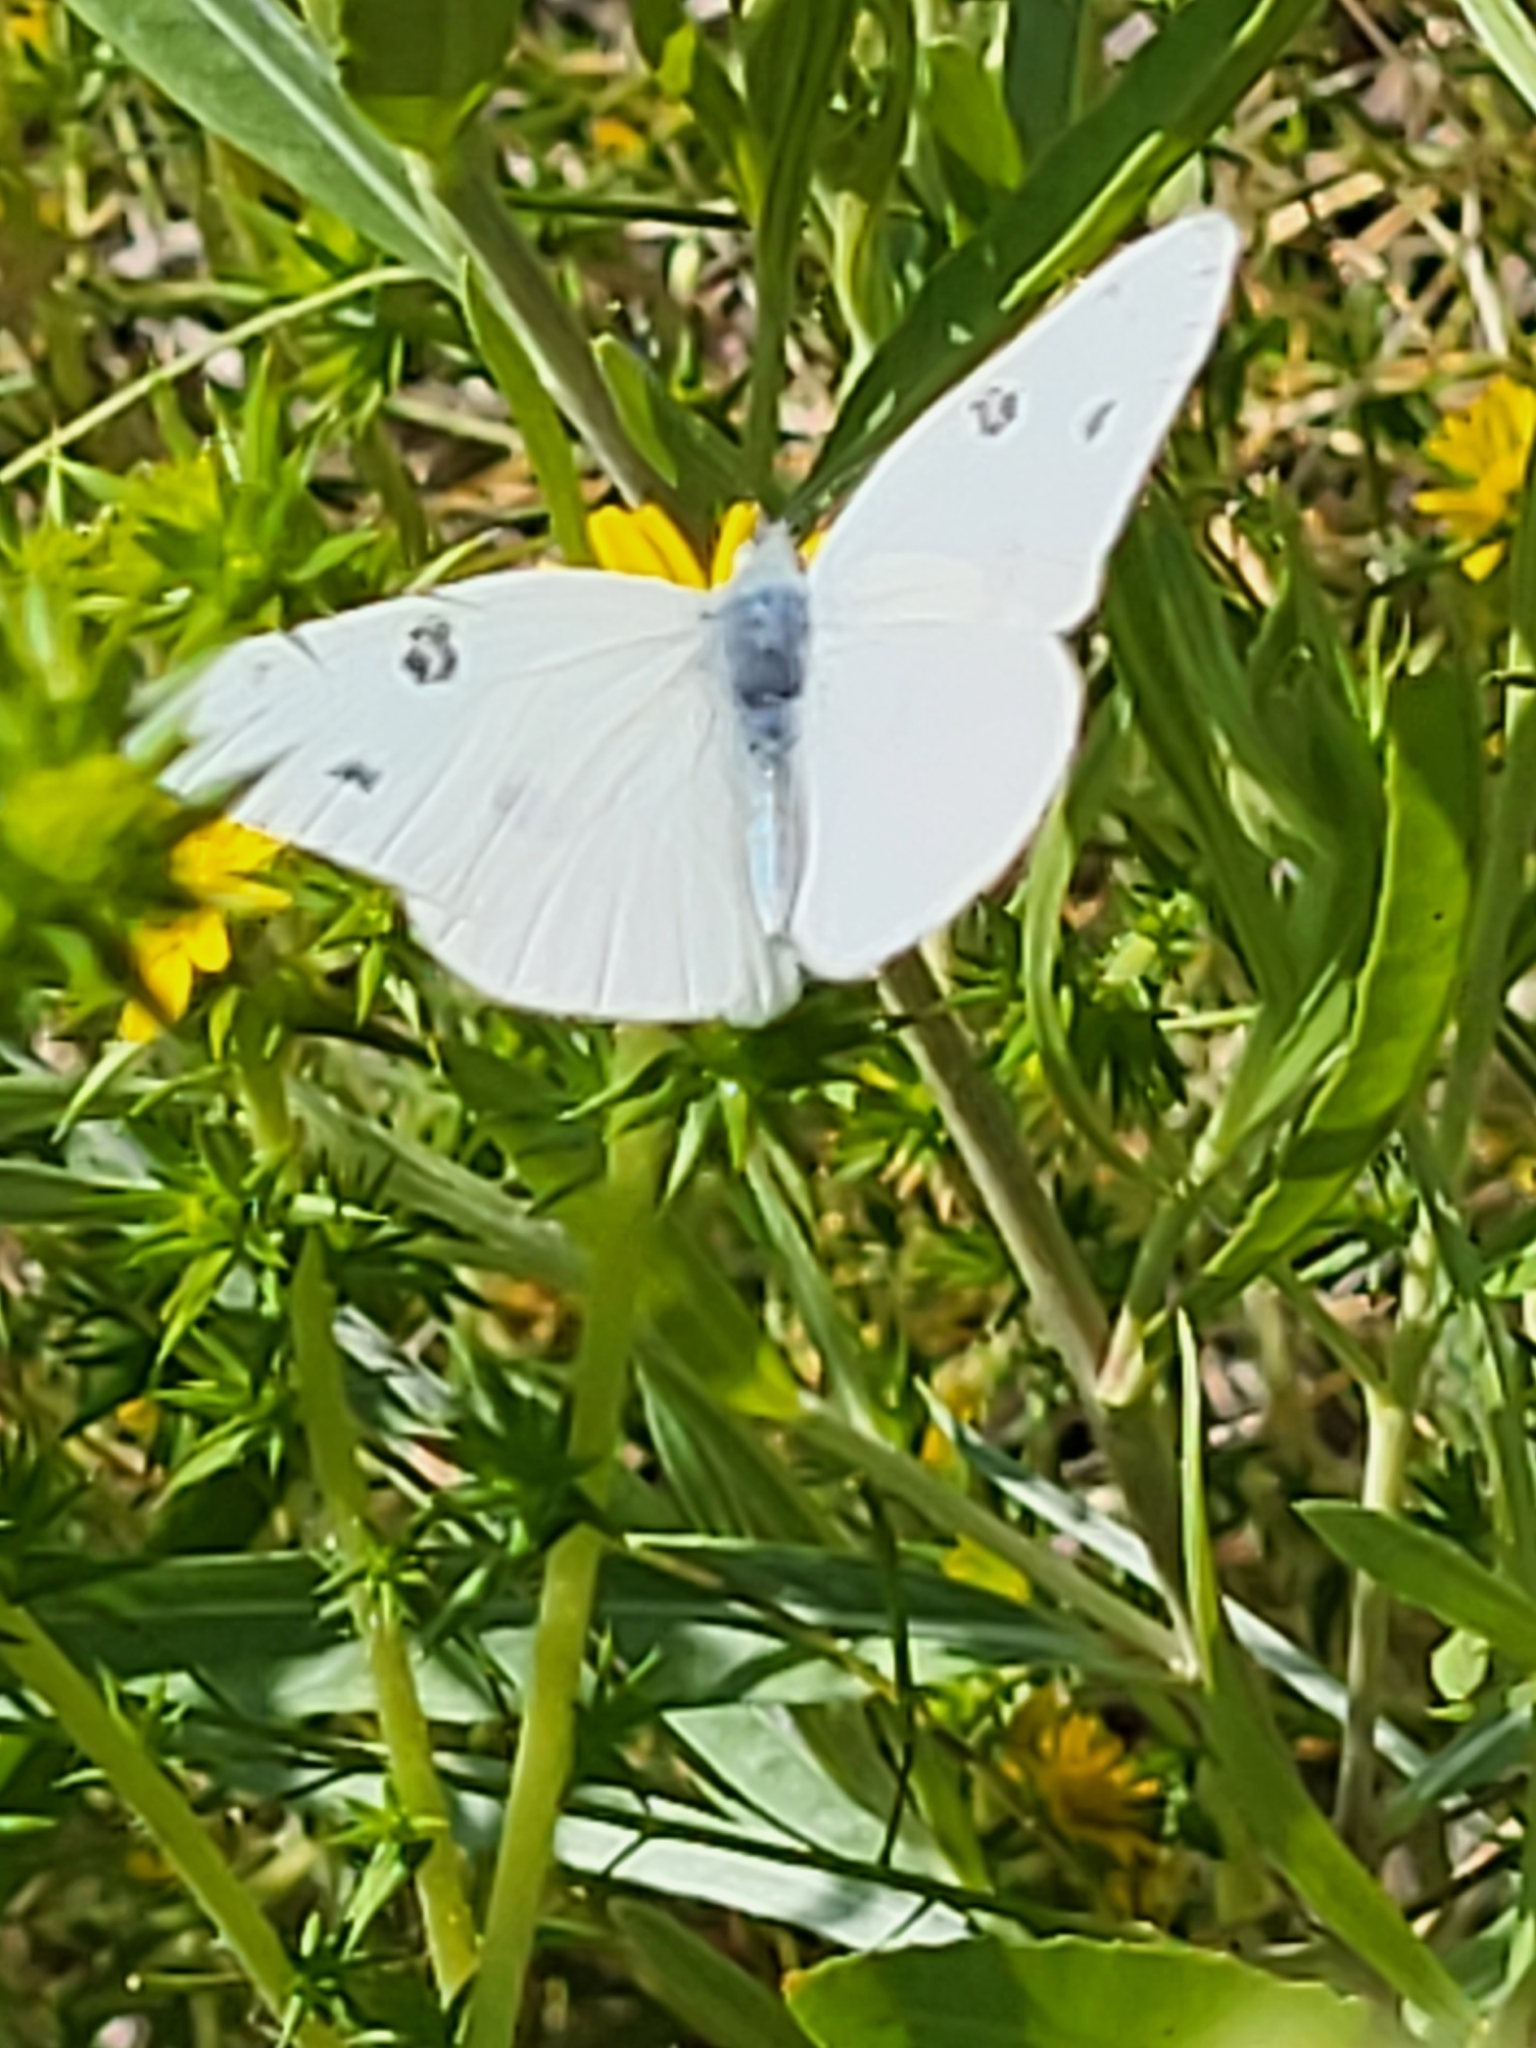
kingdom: Animalia
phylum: Arthropoda
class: Insecta
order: Lepidoptera
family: Pieridae
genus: Pontia
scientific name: Pontia protodice
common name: Checkered white
